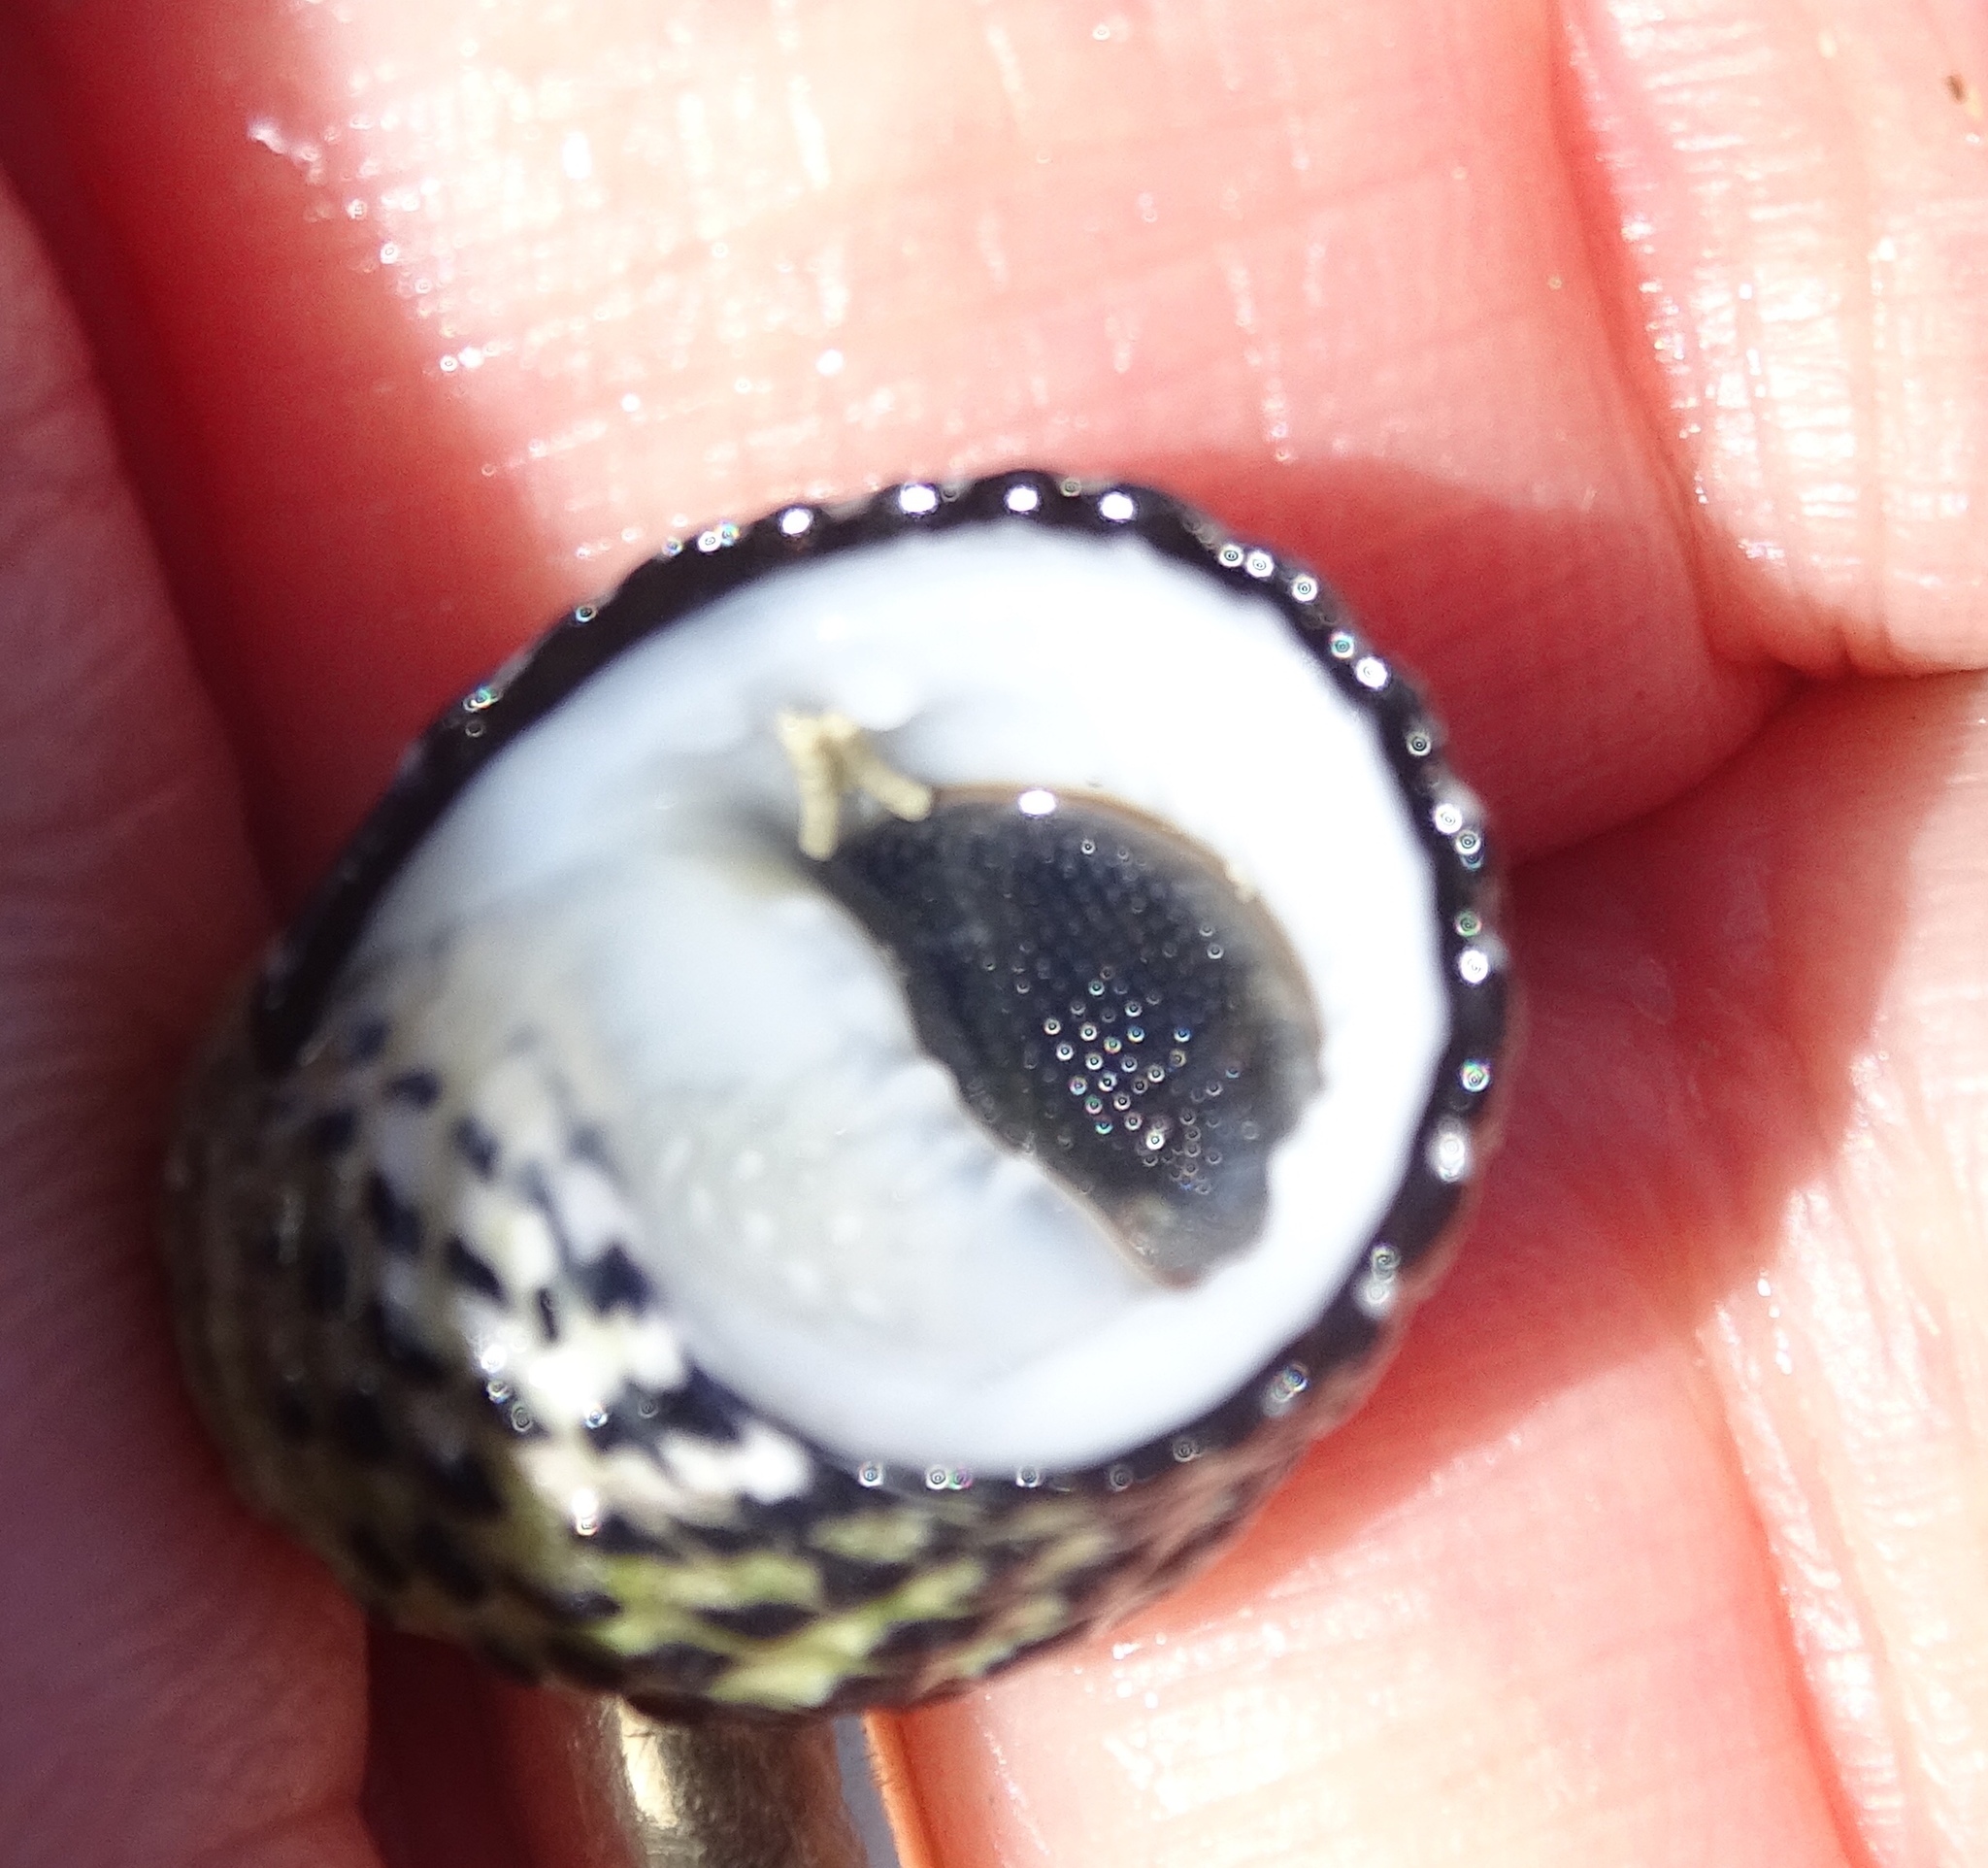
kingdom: Animalia
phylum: Mollusca
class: Gastropoda
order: Cycloneritida
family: Neritidae
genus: Nerita
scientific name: Nerita tessellata
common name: Checkered nerite
